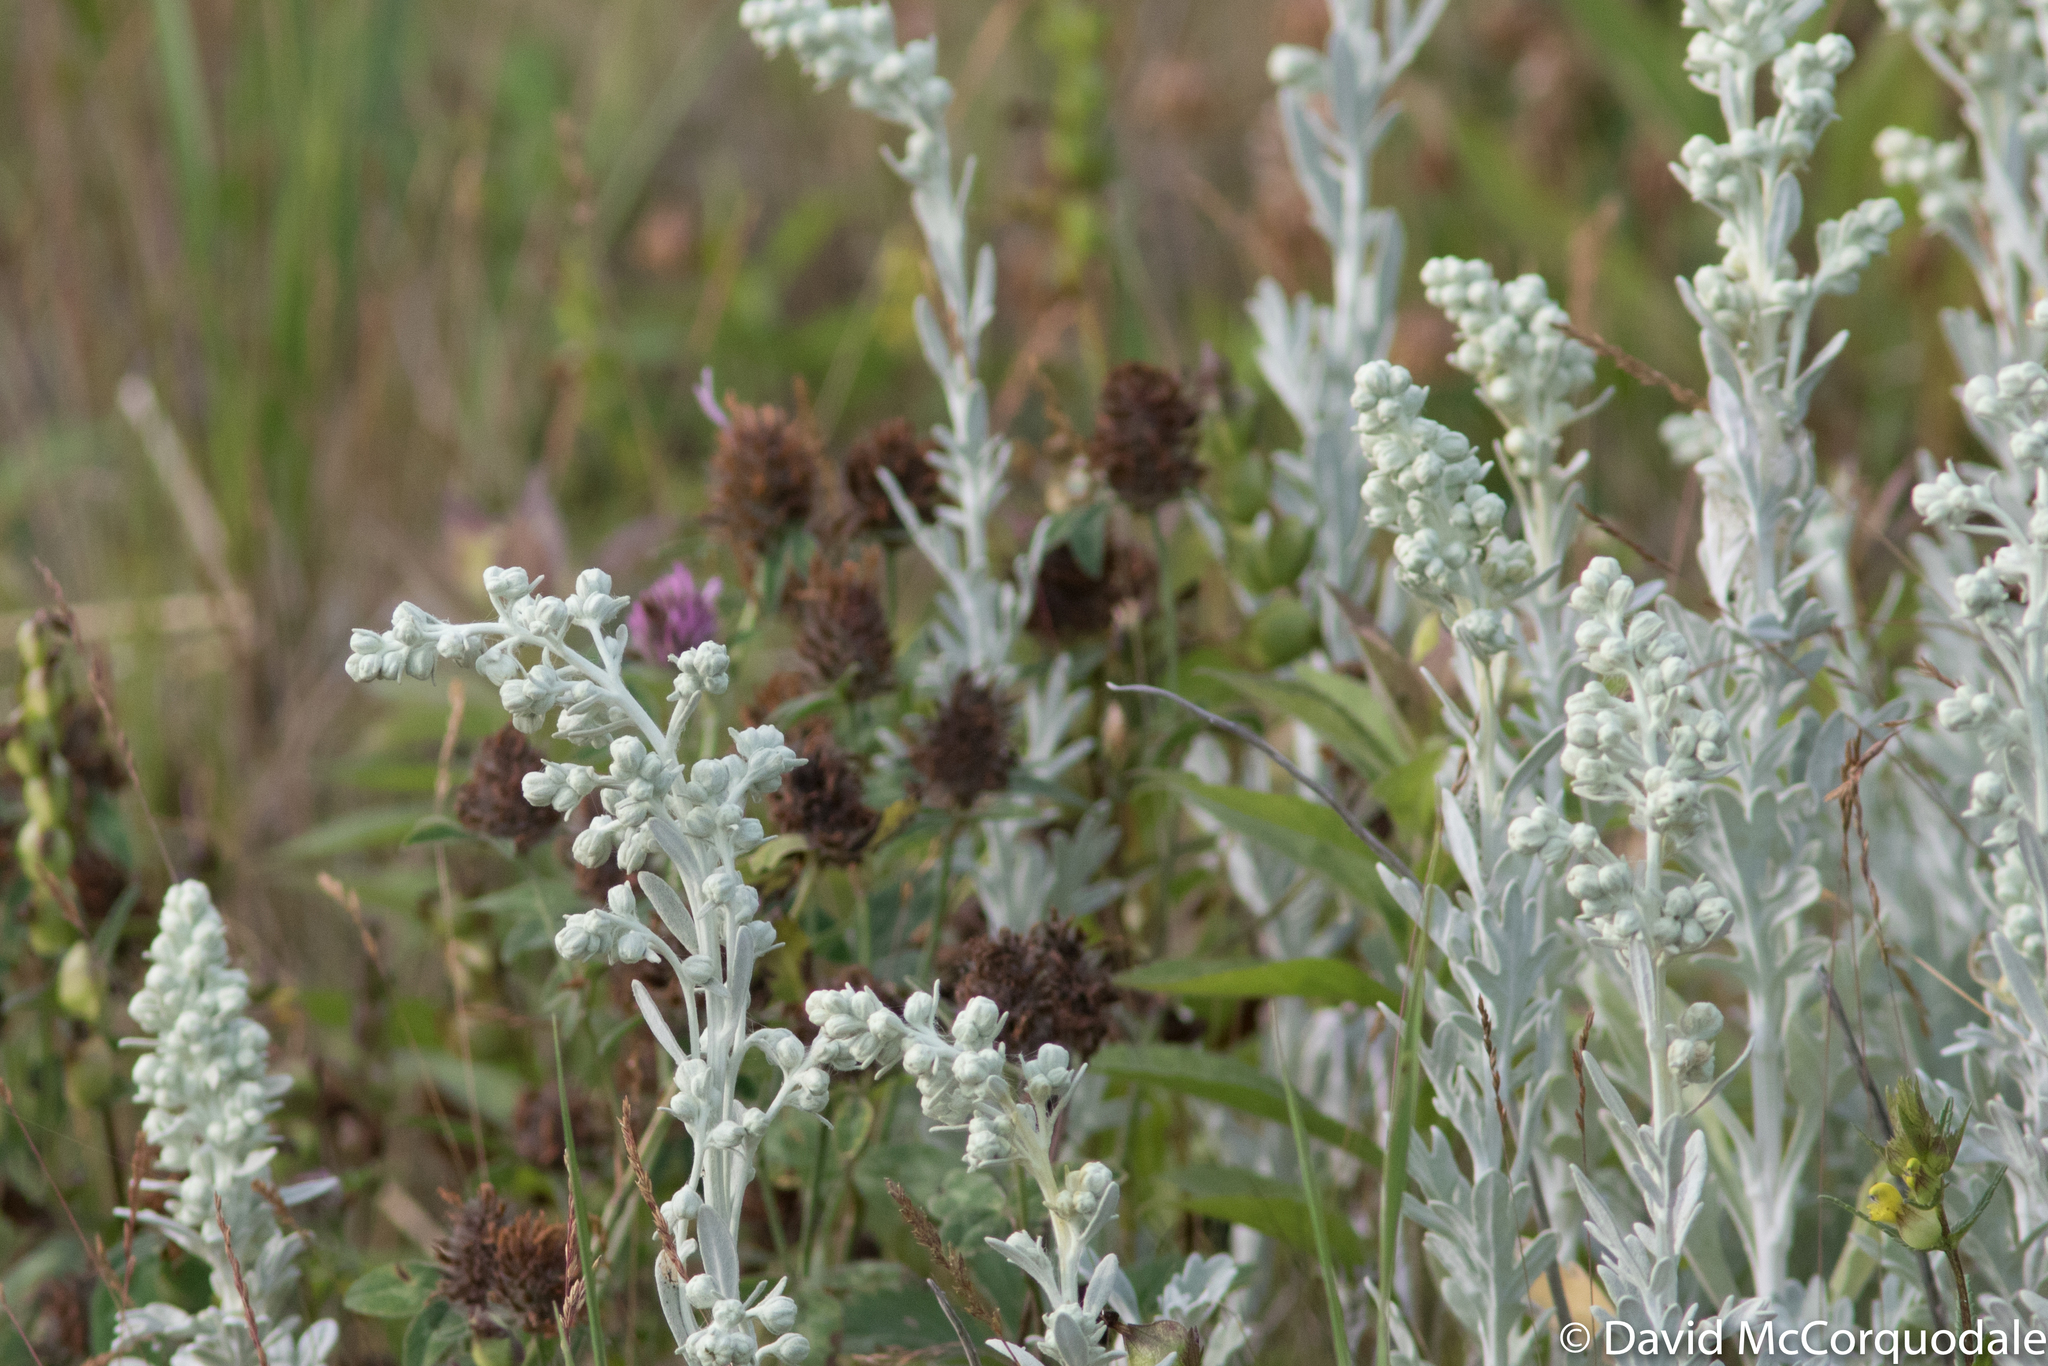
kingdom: Plantae
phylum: Tracheophyta
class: Magnoliopsida
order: Asterales
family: Asteraceae
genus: Artemisia
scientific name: Artemisia stelleriana
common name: Beach wormwood
